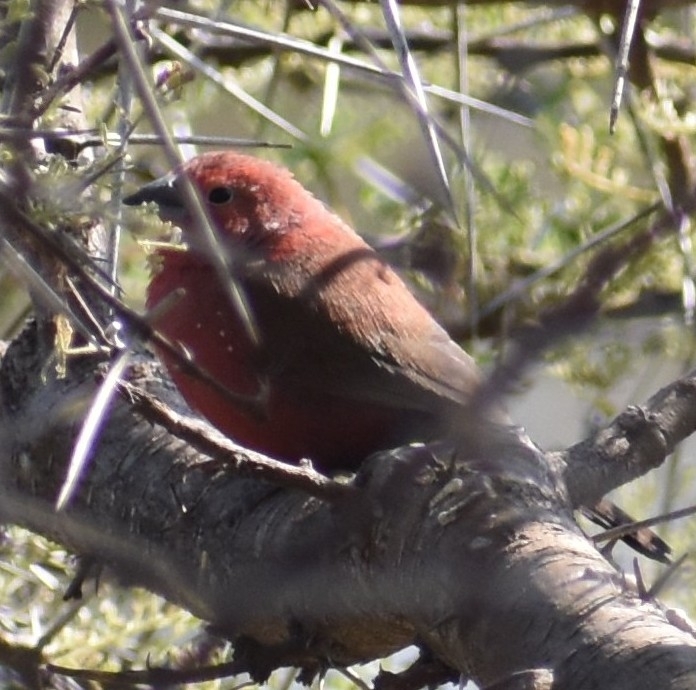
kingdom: Animalia
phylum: Chordata
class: Aves
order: Passeriformes
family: Estrildidae
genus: Lagonosticta
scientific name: Lagonosticta rhodopareia
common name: Jameson's firefinch
